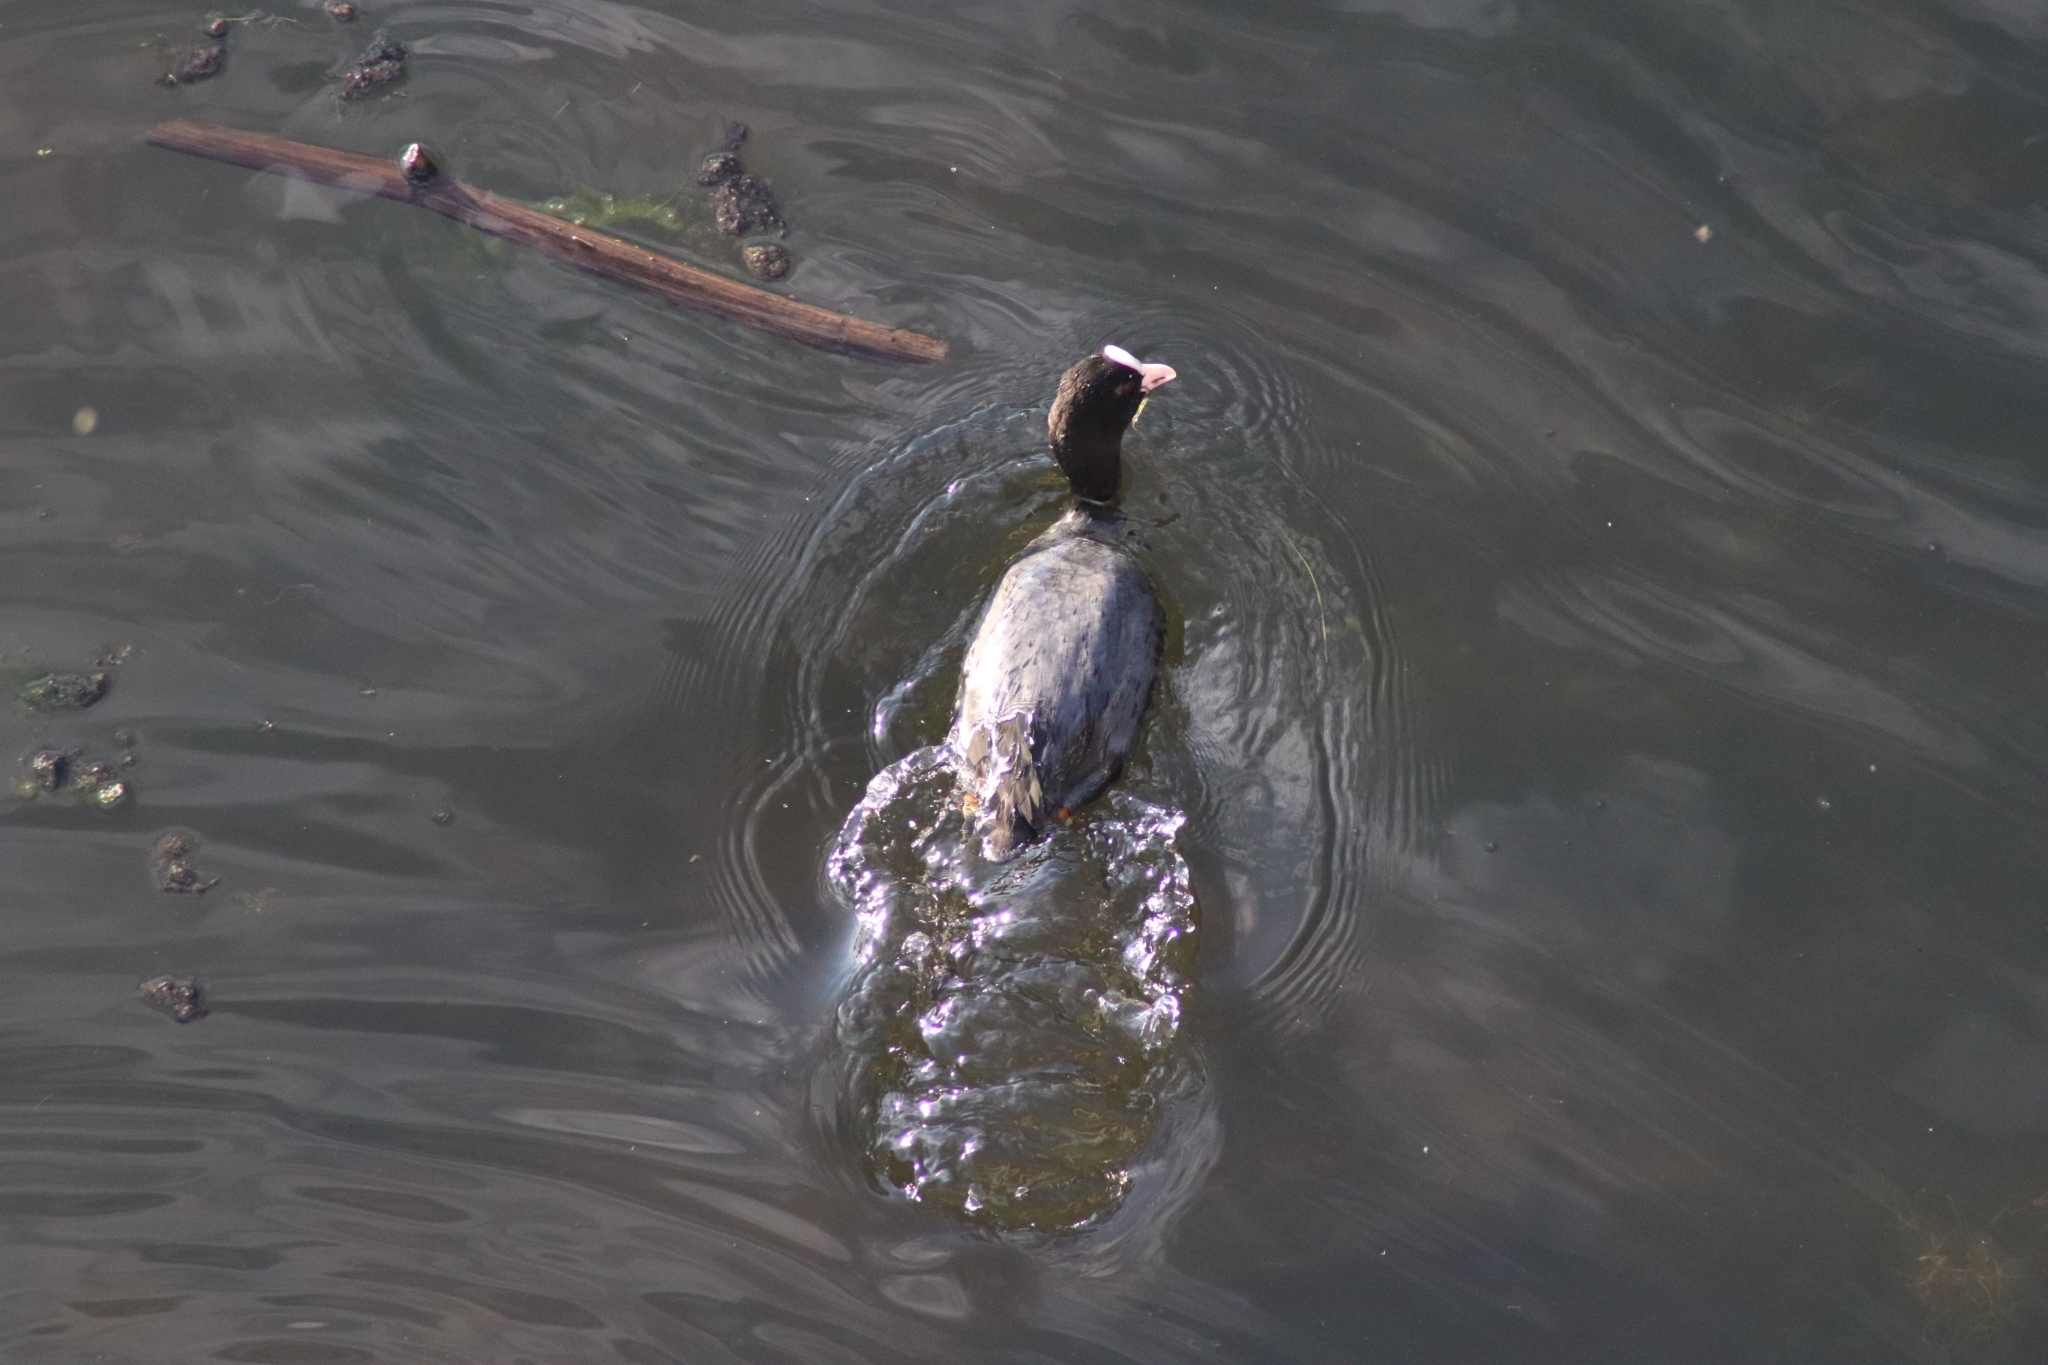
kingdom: Animalia
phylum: Chordata
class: Aves
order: Gruiformes
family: Rallidae
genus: Fulica
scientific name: Fulica atra
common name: Eurasian coot
